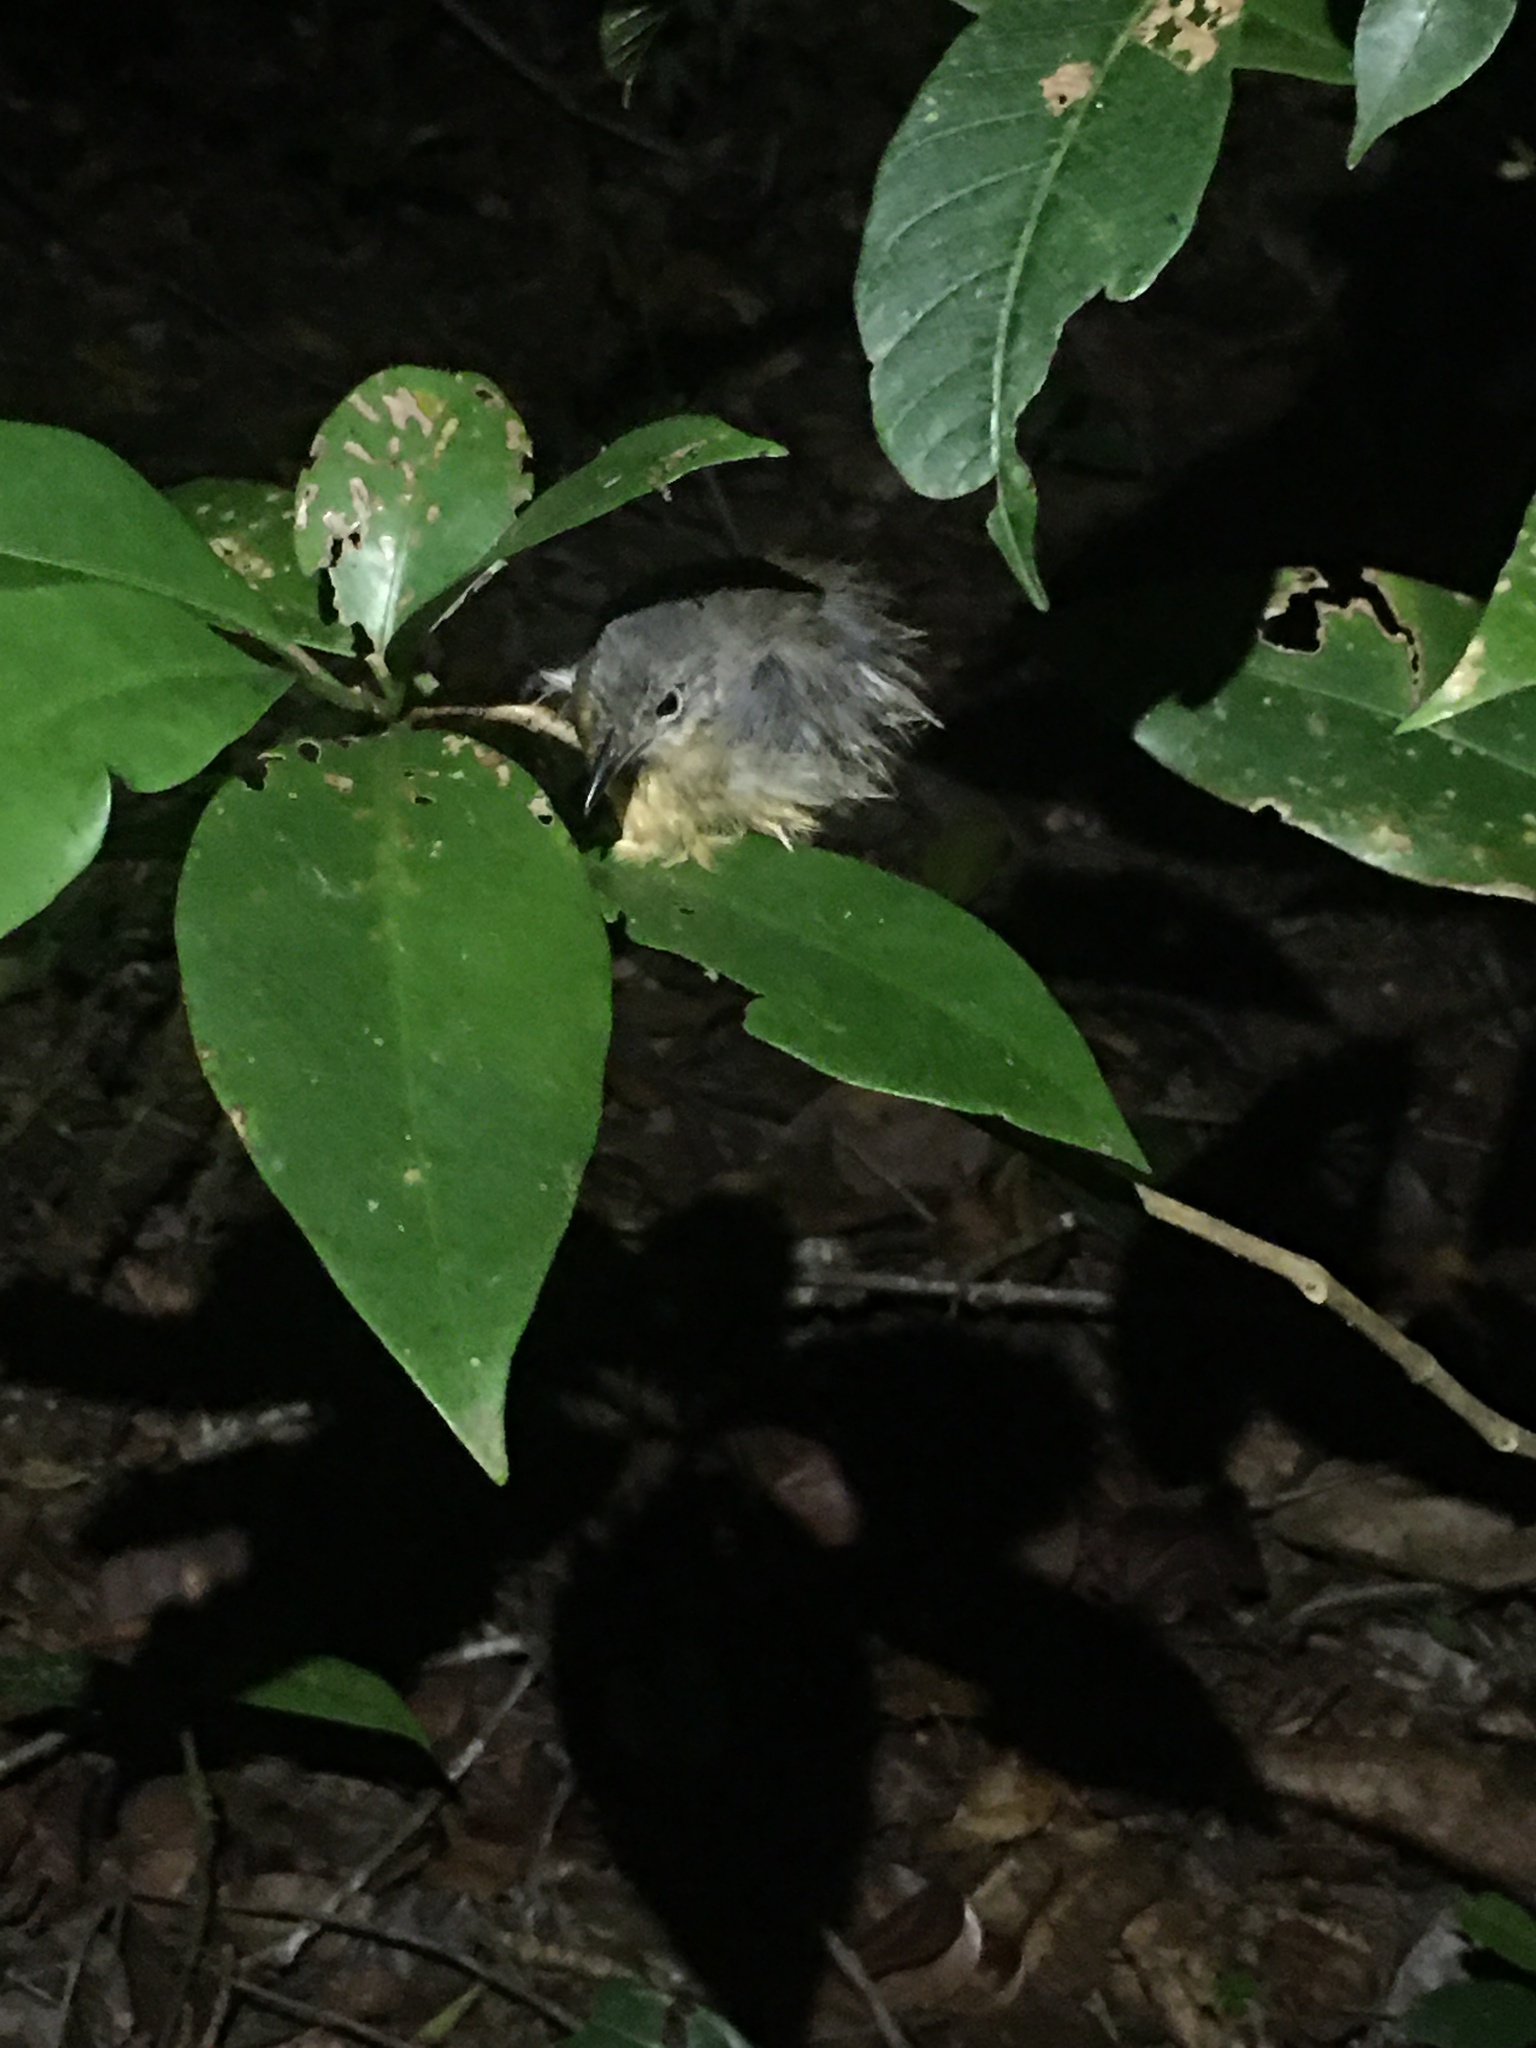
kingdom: Animalia
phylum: Chordata
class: Aves
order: Passeriformes
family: Thamnophilidae
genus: Myrmotherula
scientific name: Myrmotherula axillaris
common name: White-flanked antwren
